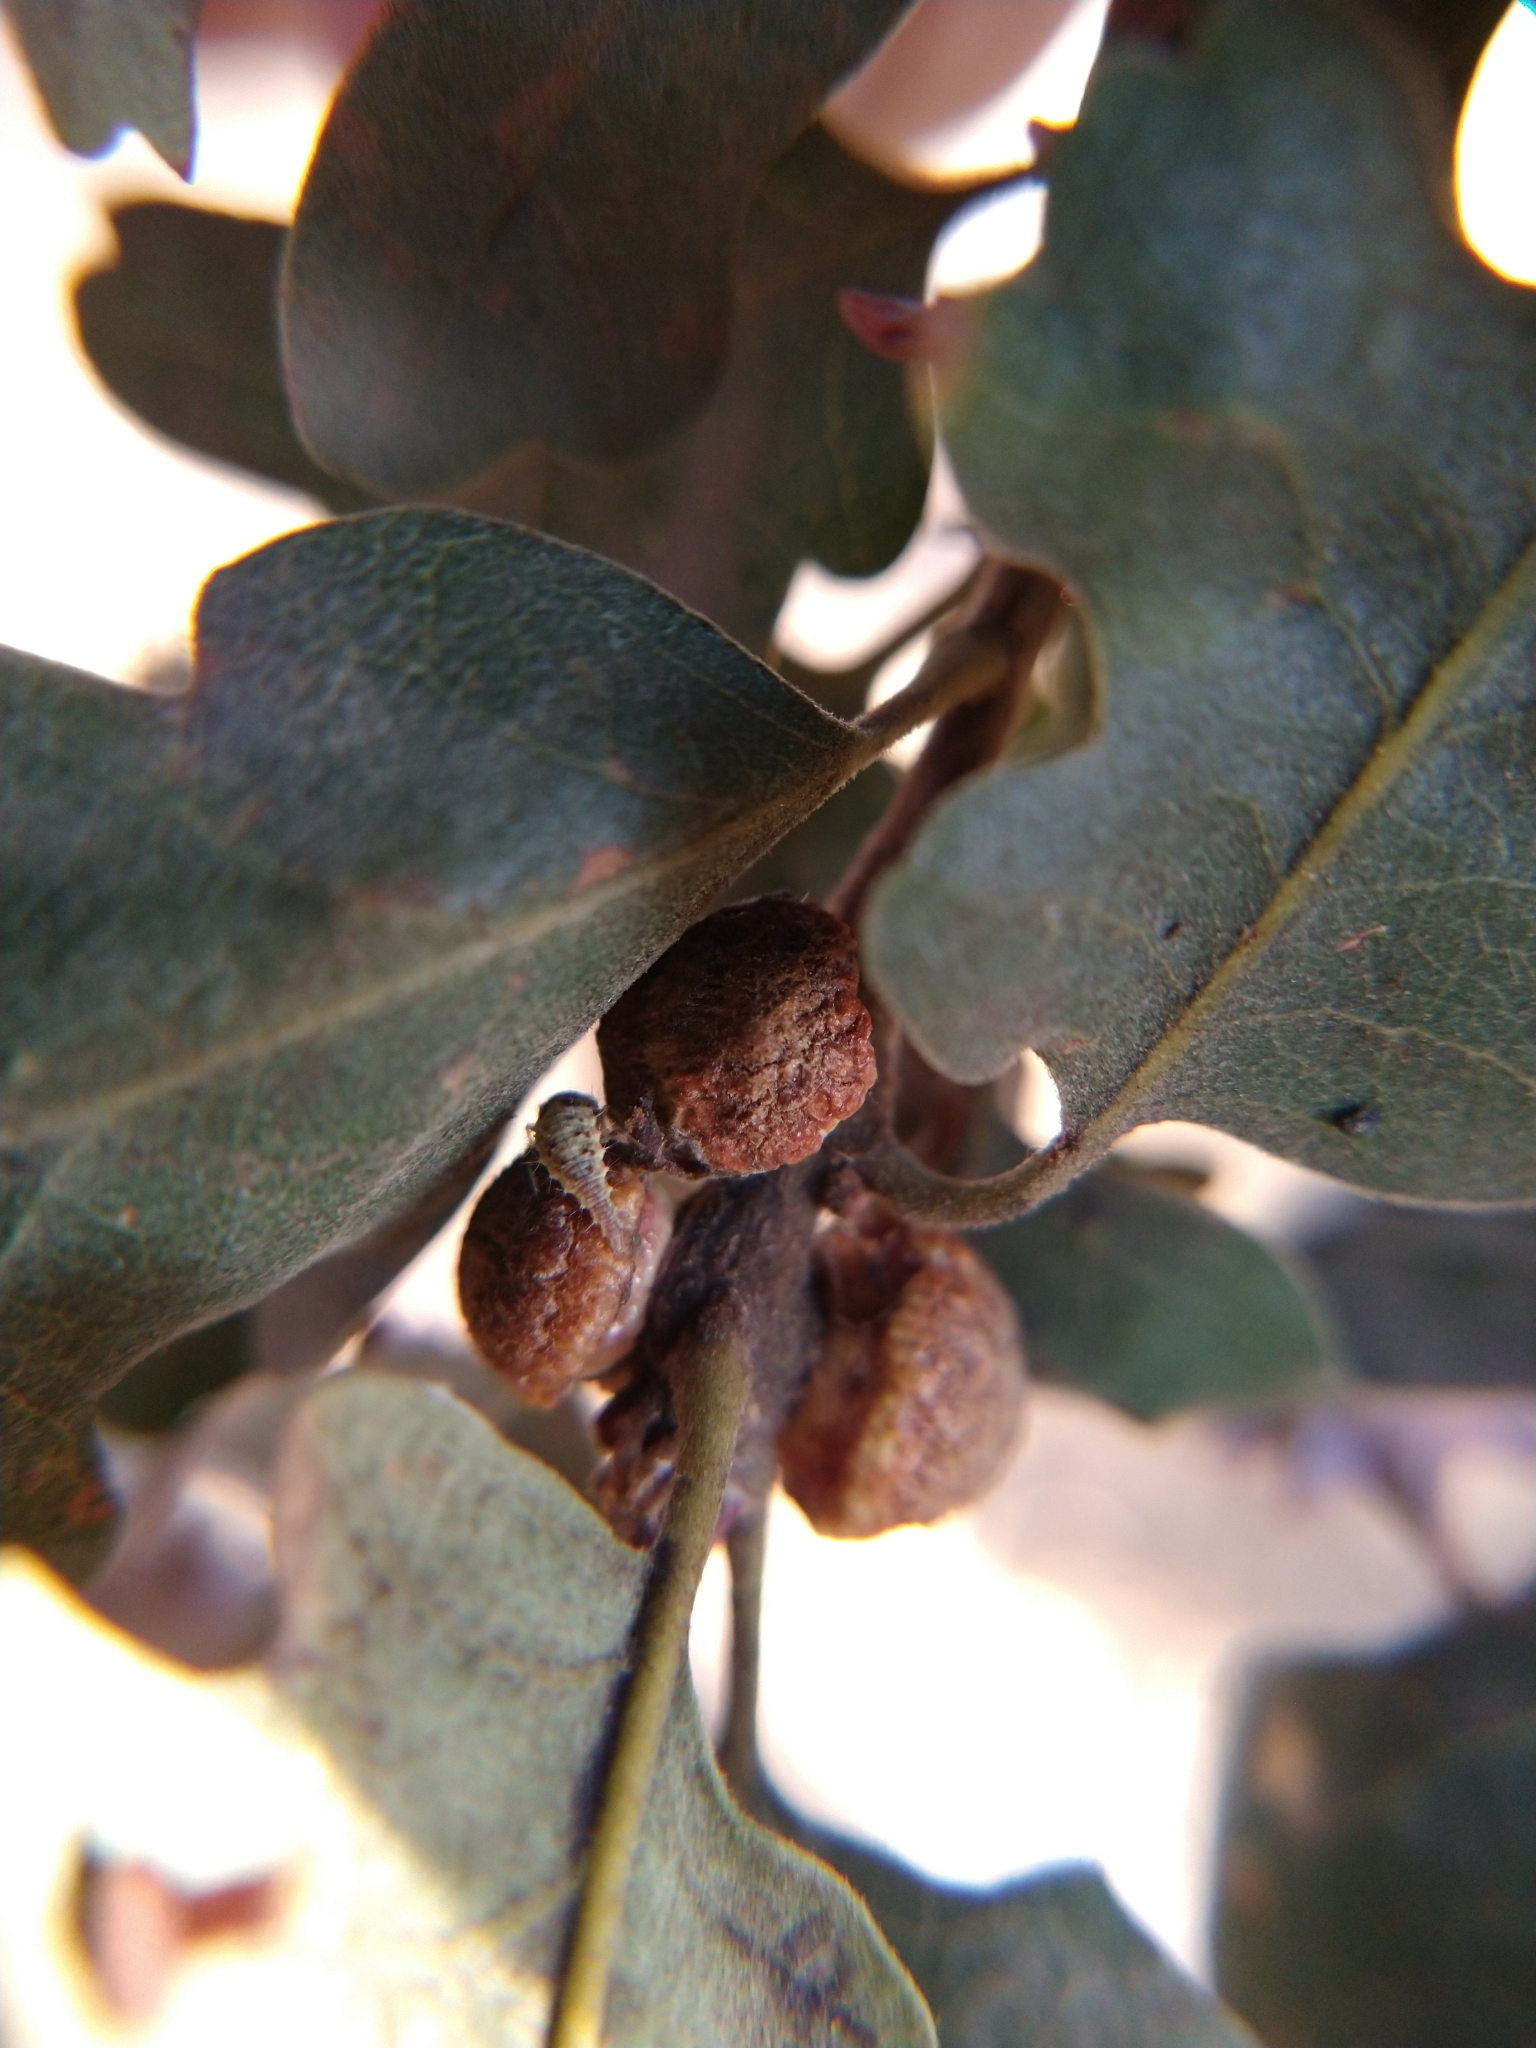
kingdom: Animalia
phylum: Arthropoda
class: Insecta
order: Hymenoptera
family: Cynipidae
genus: Disholcaspis
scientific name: Disholcaspis
